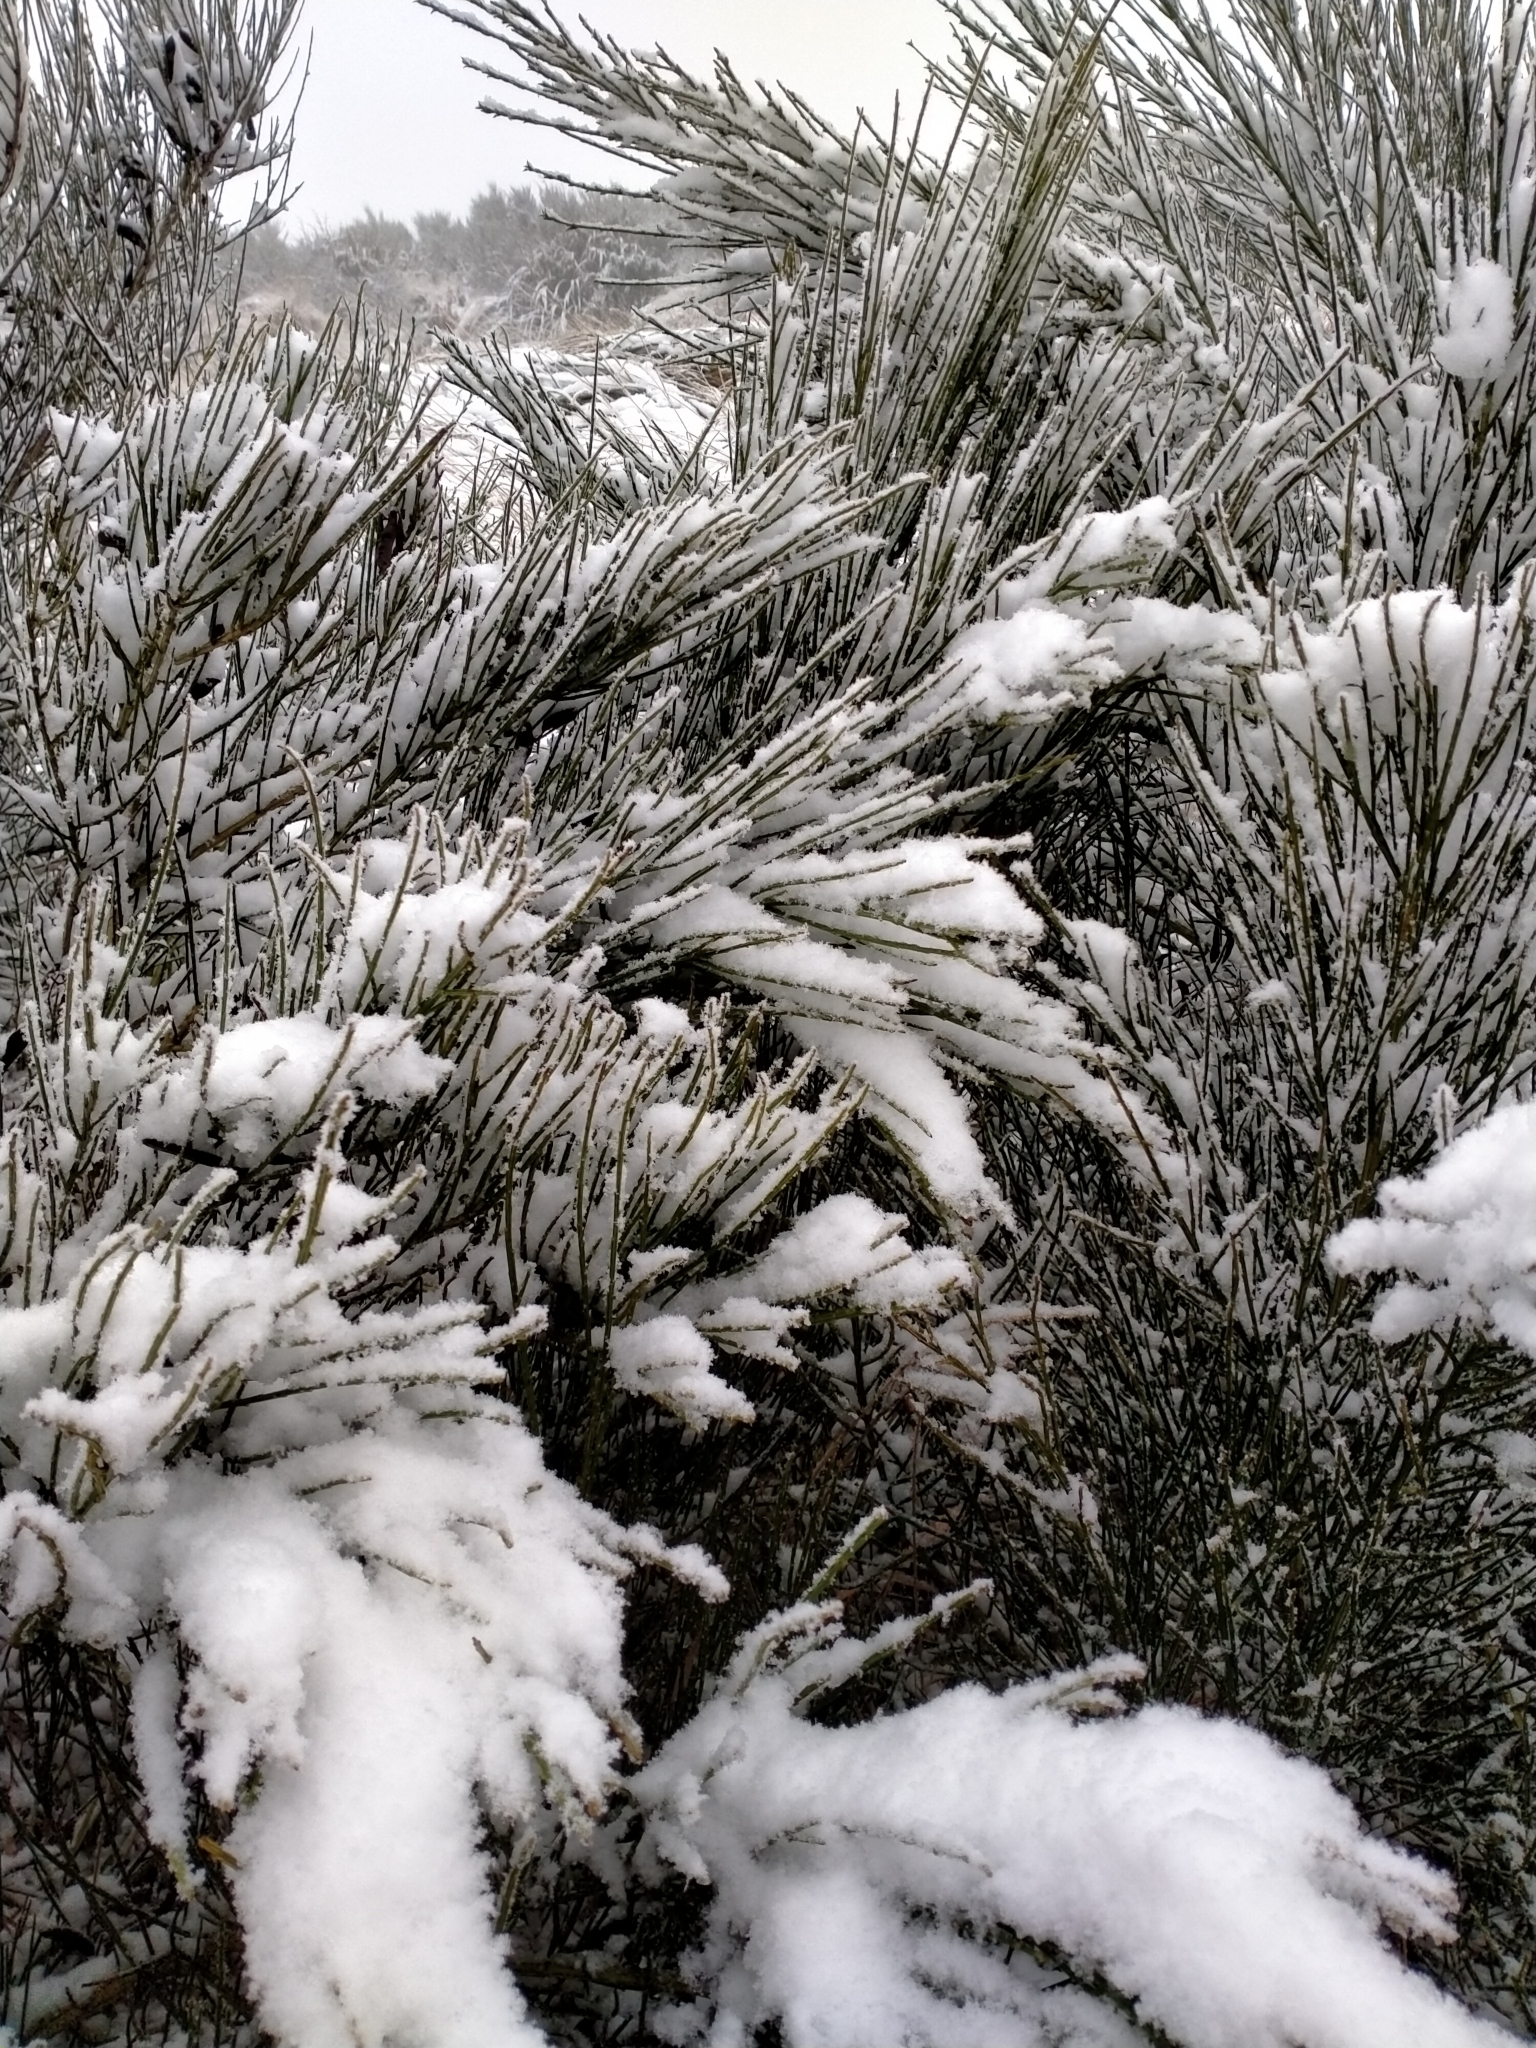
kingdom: Plantae
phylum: Tracheophyta
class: Magnoliopsida
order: Fabales
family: Fabaceae
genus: Cytisus
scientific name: Cytisus scoparius
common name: Scotch broom
